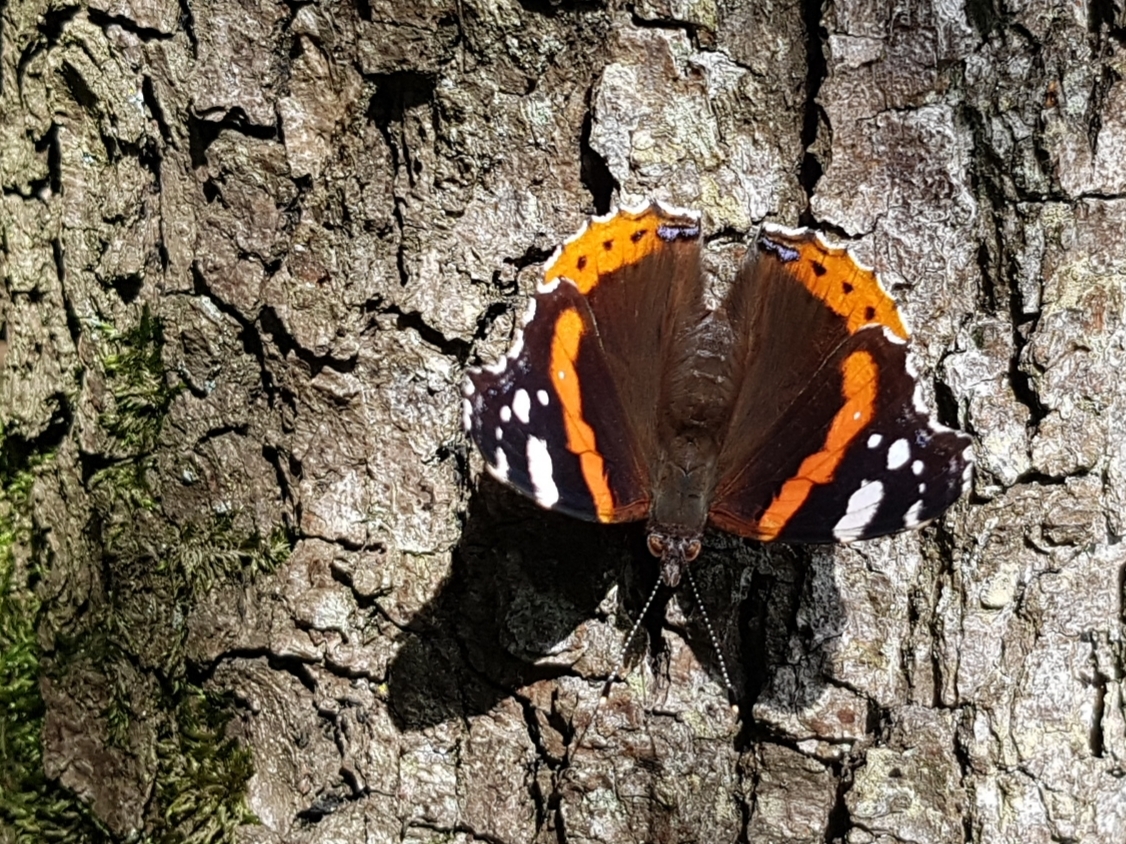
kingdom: Animalia
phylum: Arthropoda
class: Insecta
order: Lepidoptera
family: Nymphalidae
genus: Vanessa
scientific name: Vanessa atalanta
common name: Red admiral
